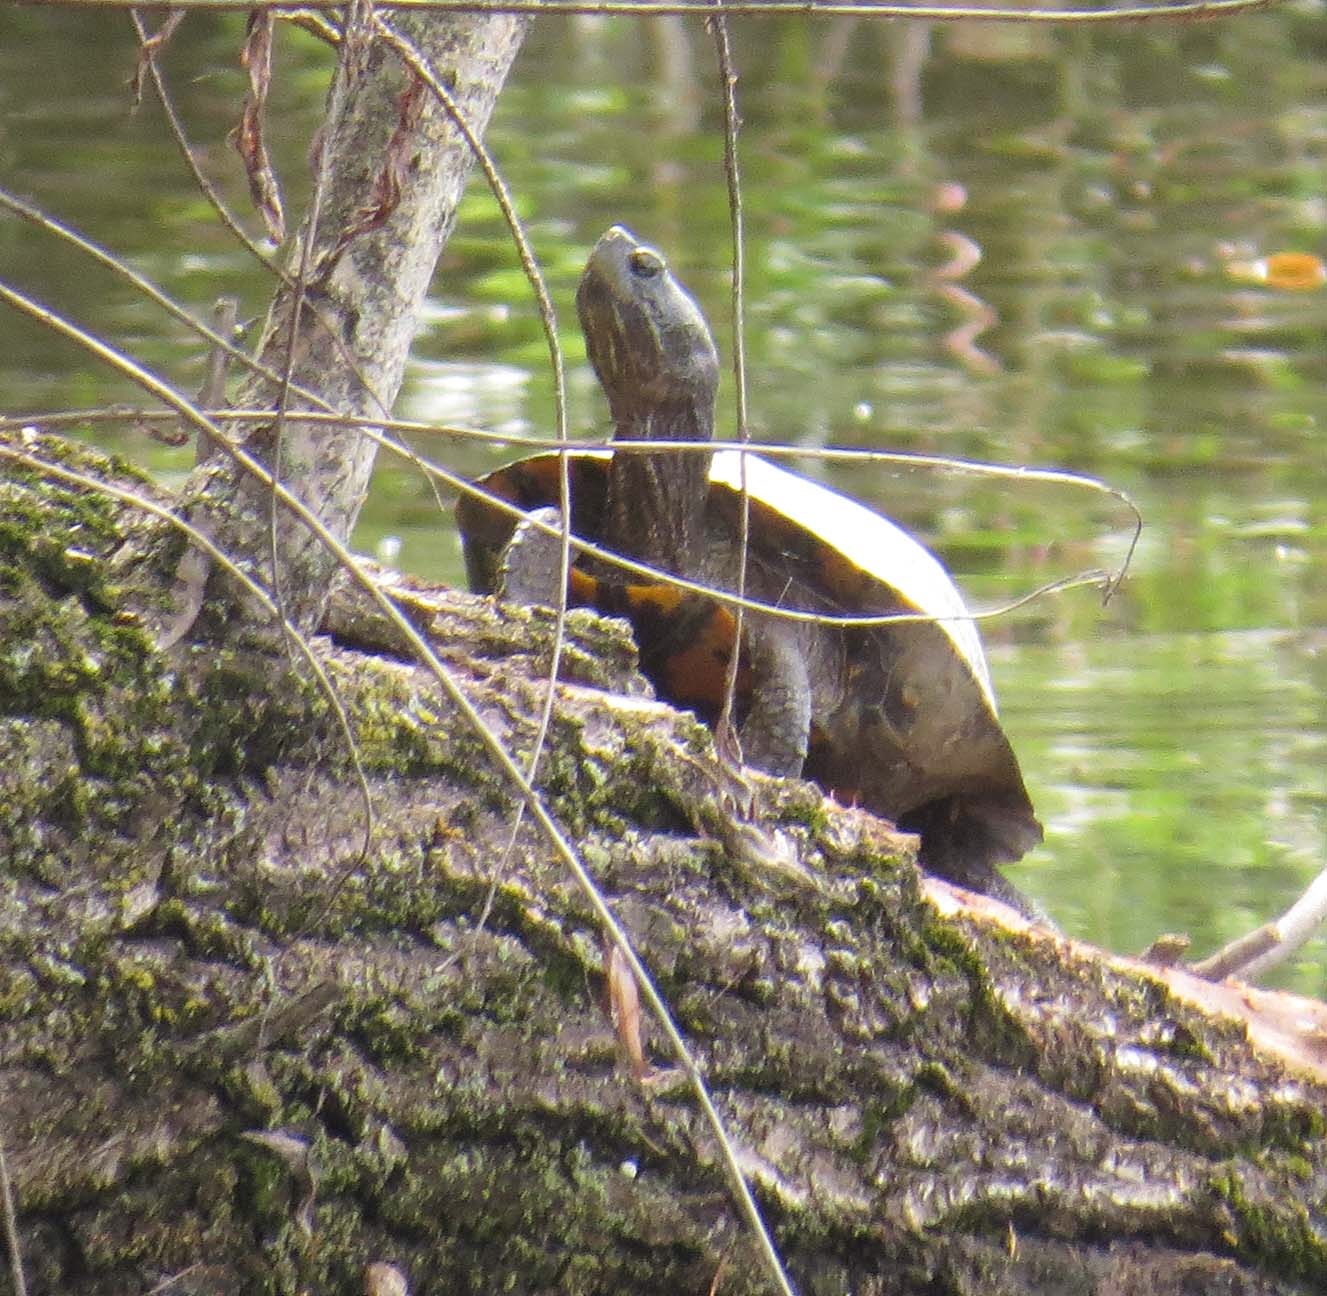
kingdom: Animalia
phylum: Chordata
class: Testudines
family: Emydidae
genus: Trachemys
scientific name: Trachemys scripta
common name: Slider
